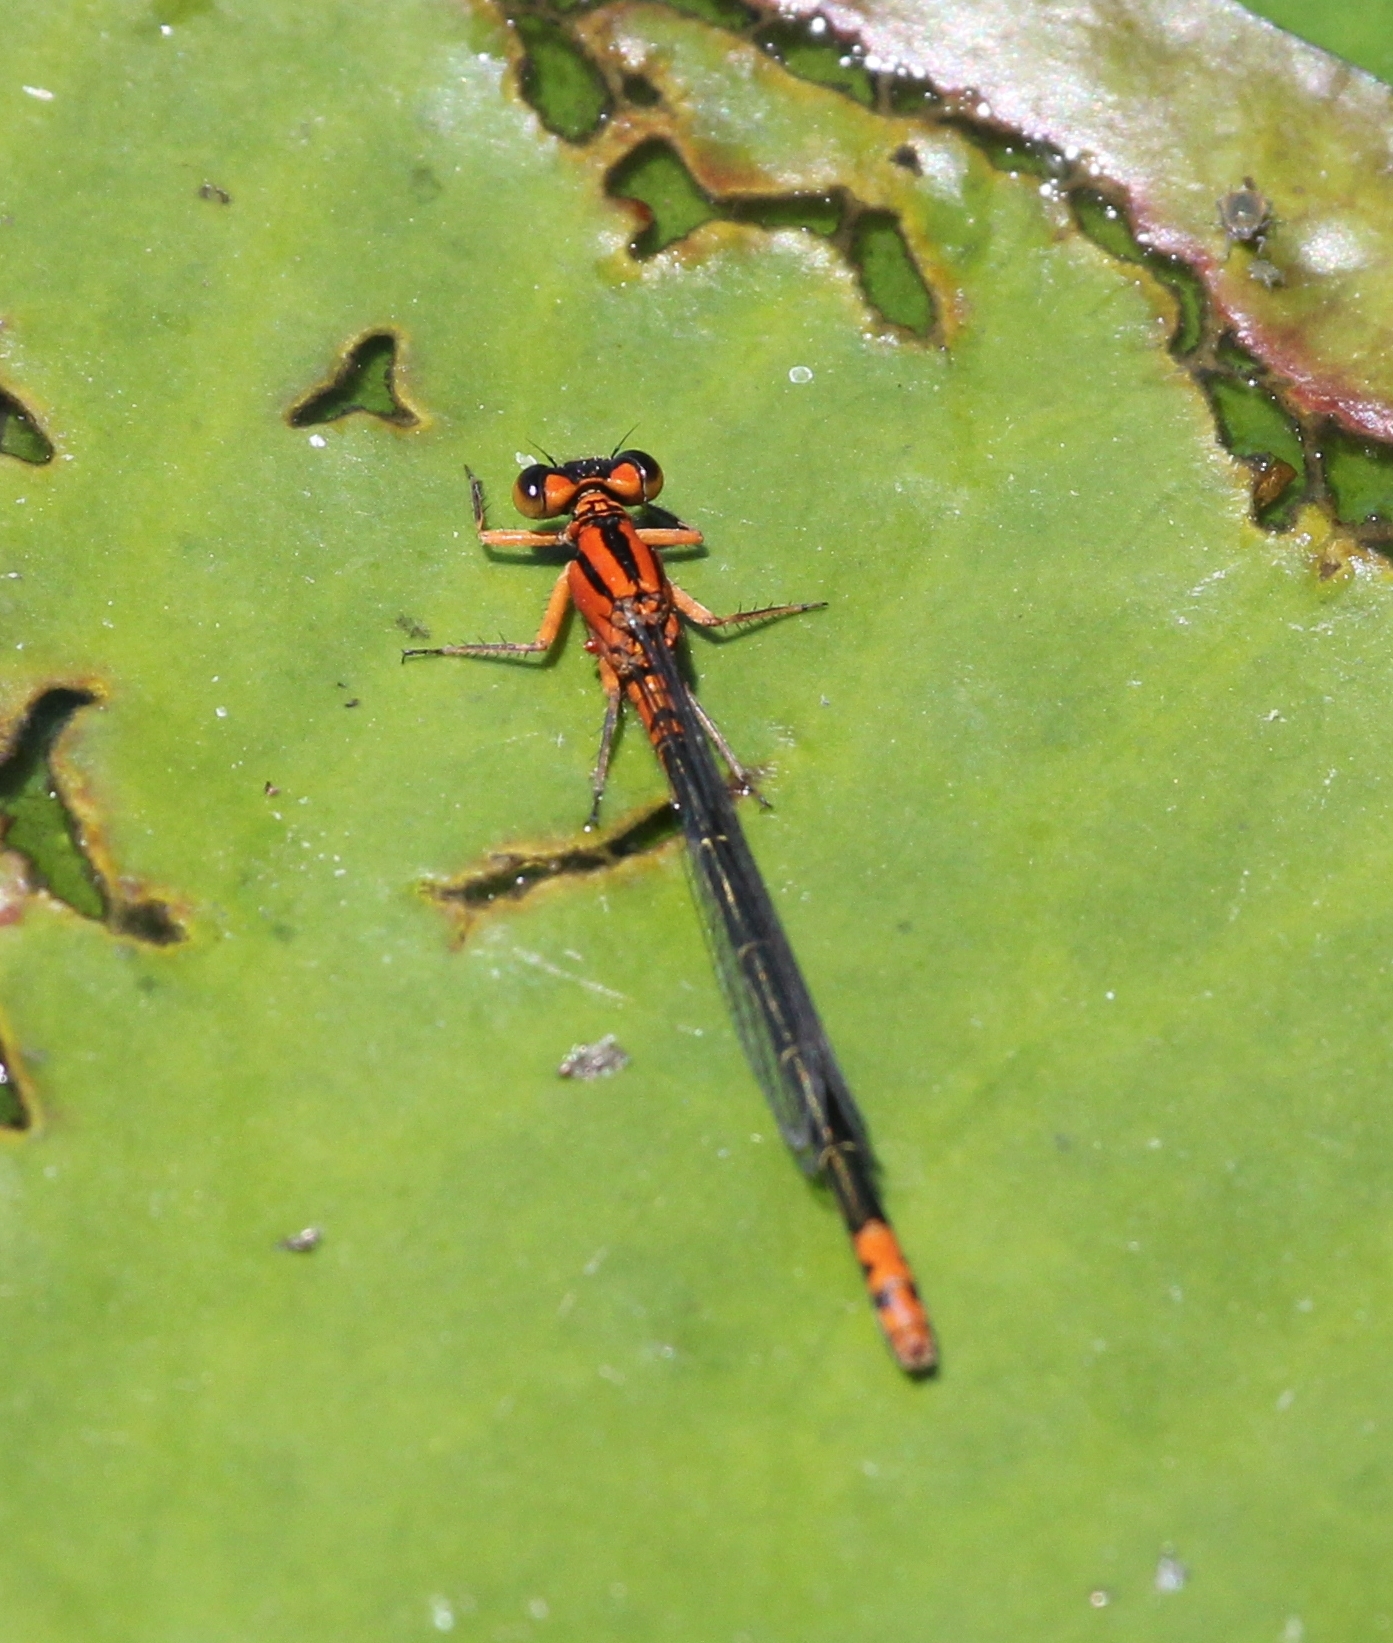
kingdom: Animalia
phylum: Arthropoda
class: Insecta
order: Odonata
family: Coenagrionidae
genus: Ischnura
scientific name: Ischnura kellicotti
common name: Lilypad forktail
